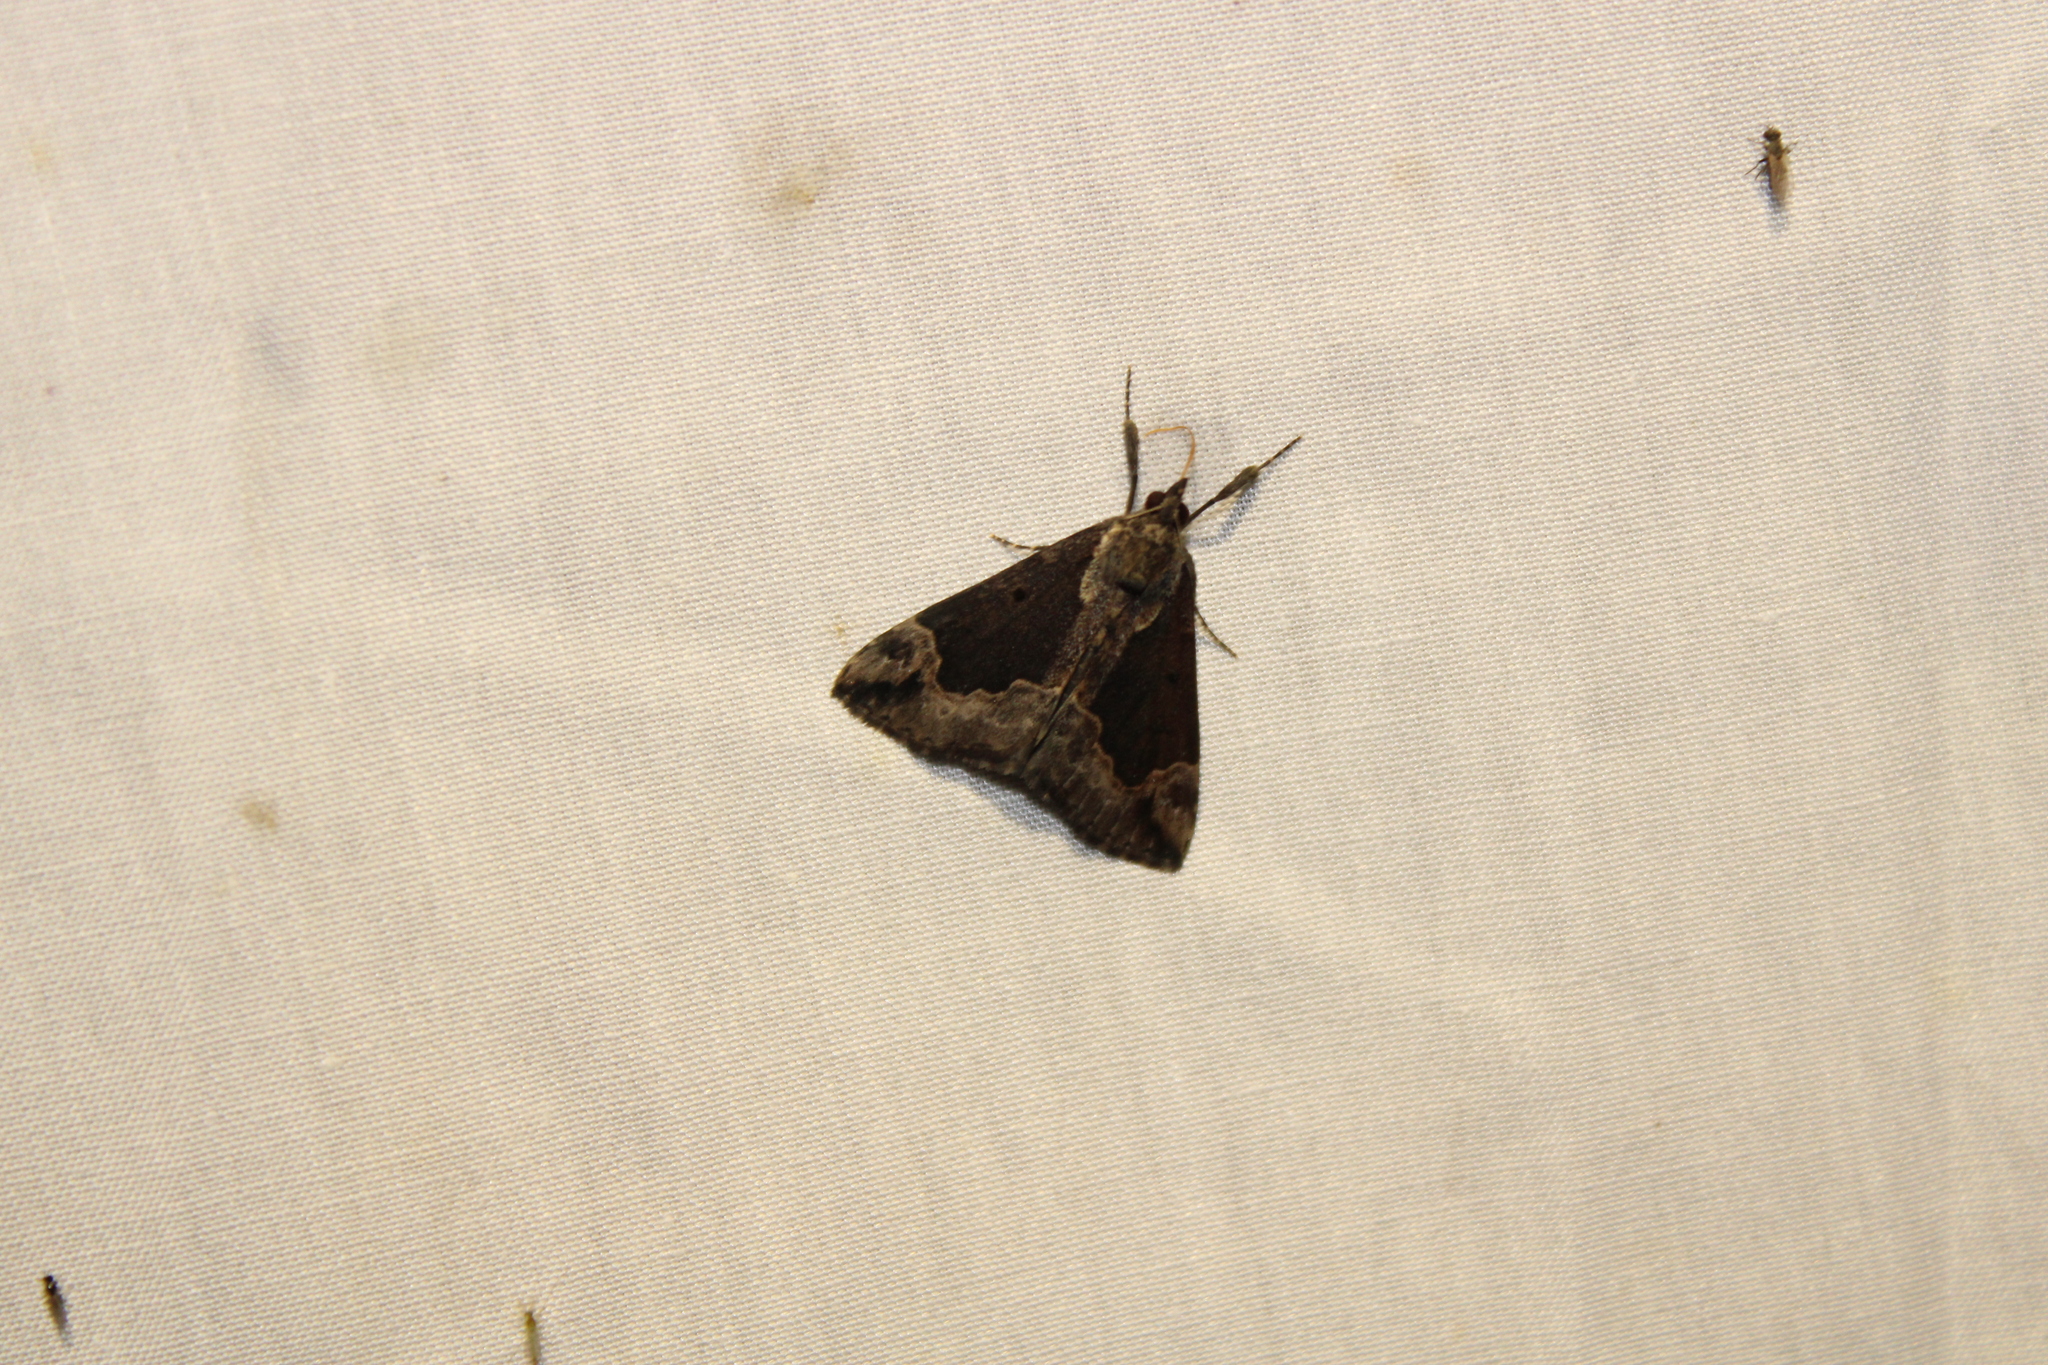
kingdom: Animalia
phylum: Arthropoda
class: Insecta
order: Lepidoptera
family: Erebidae
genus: Hypena
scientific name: Hypena baltimoralis
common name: Baltimore snout
